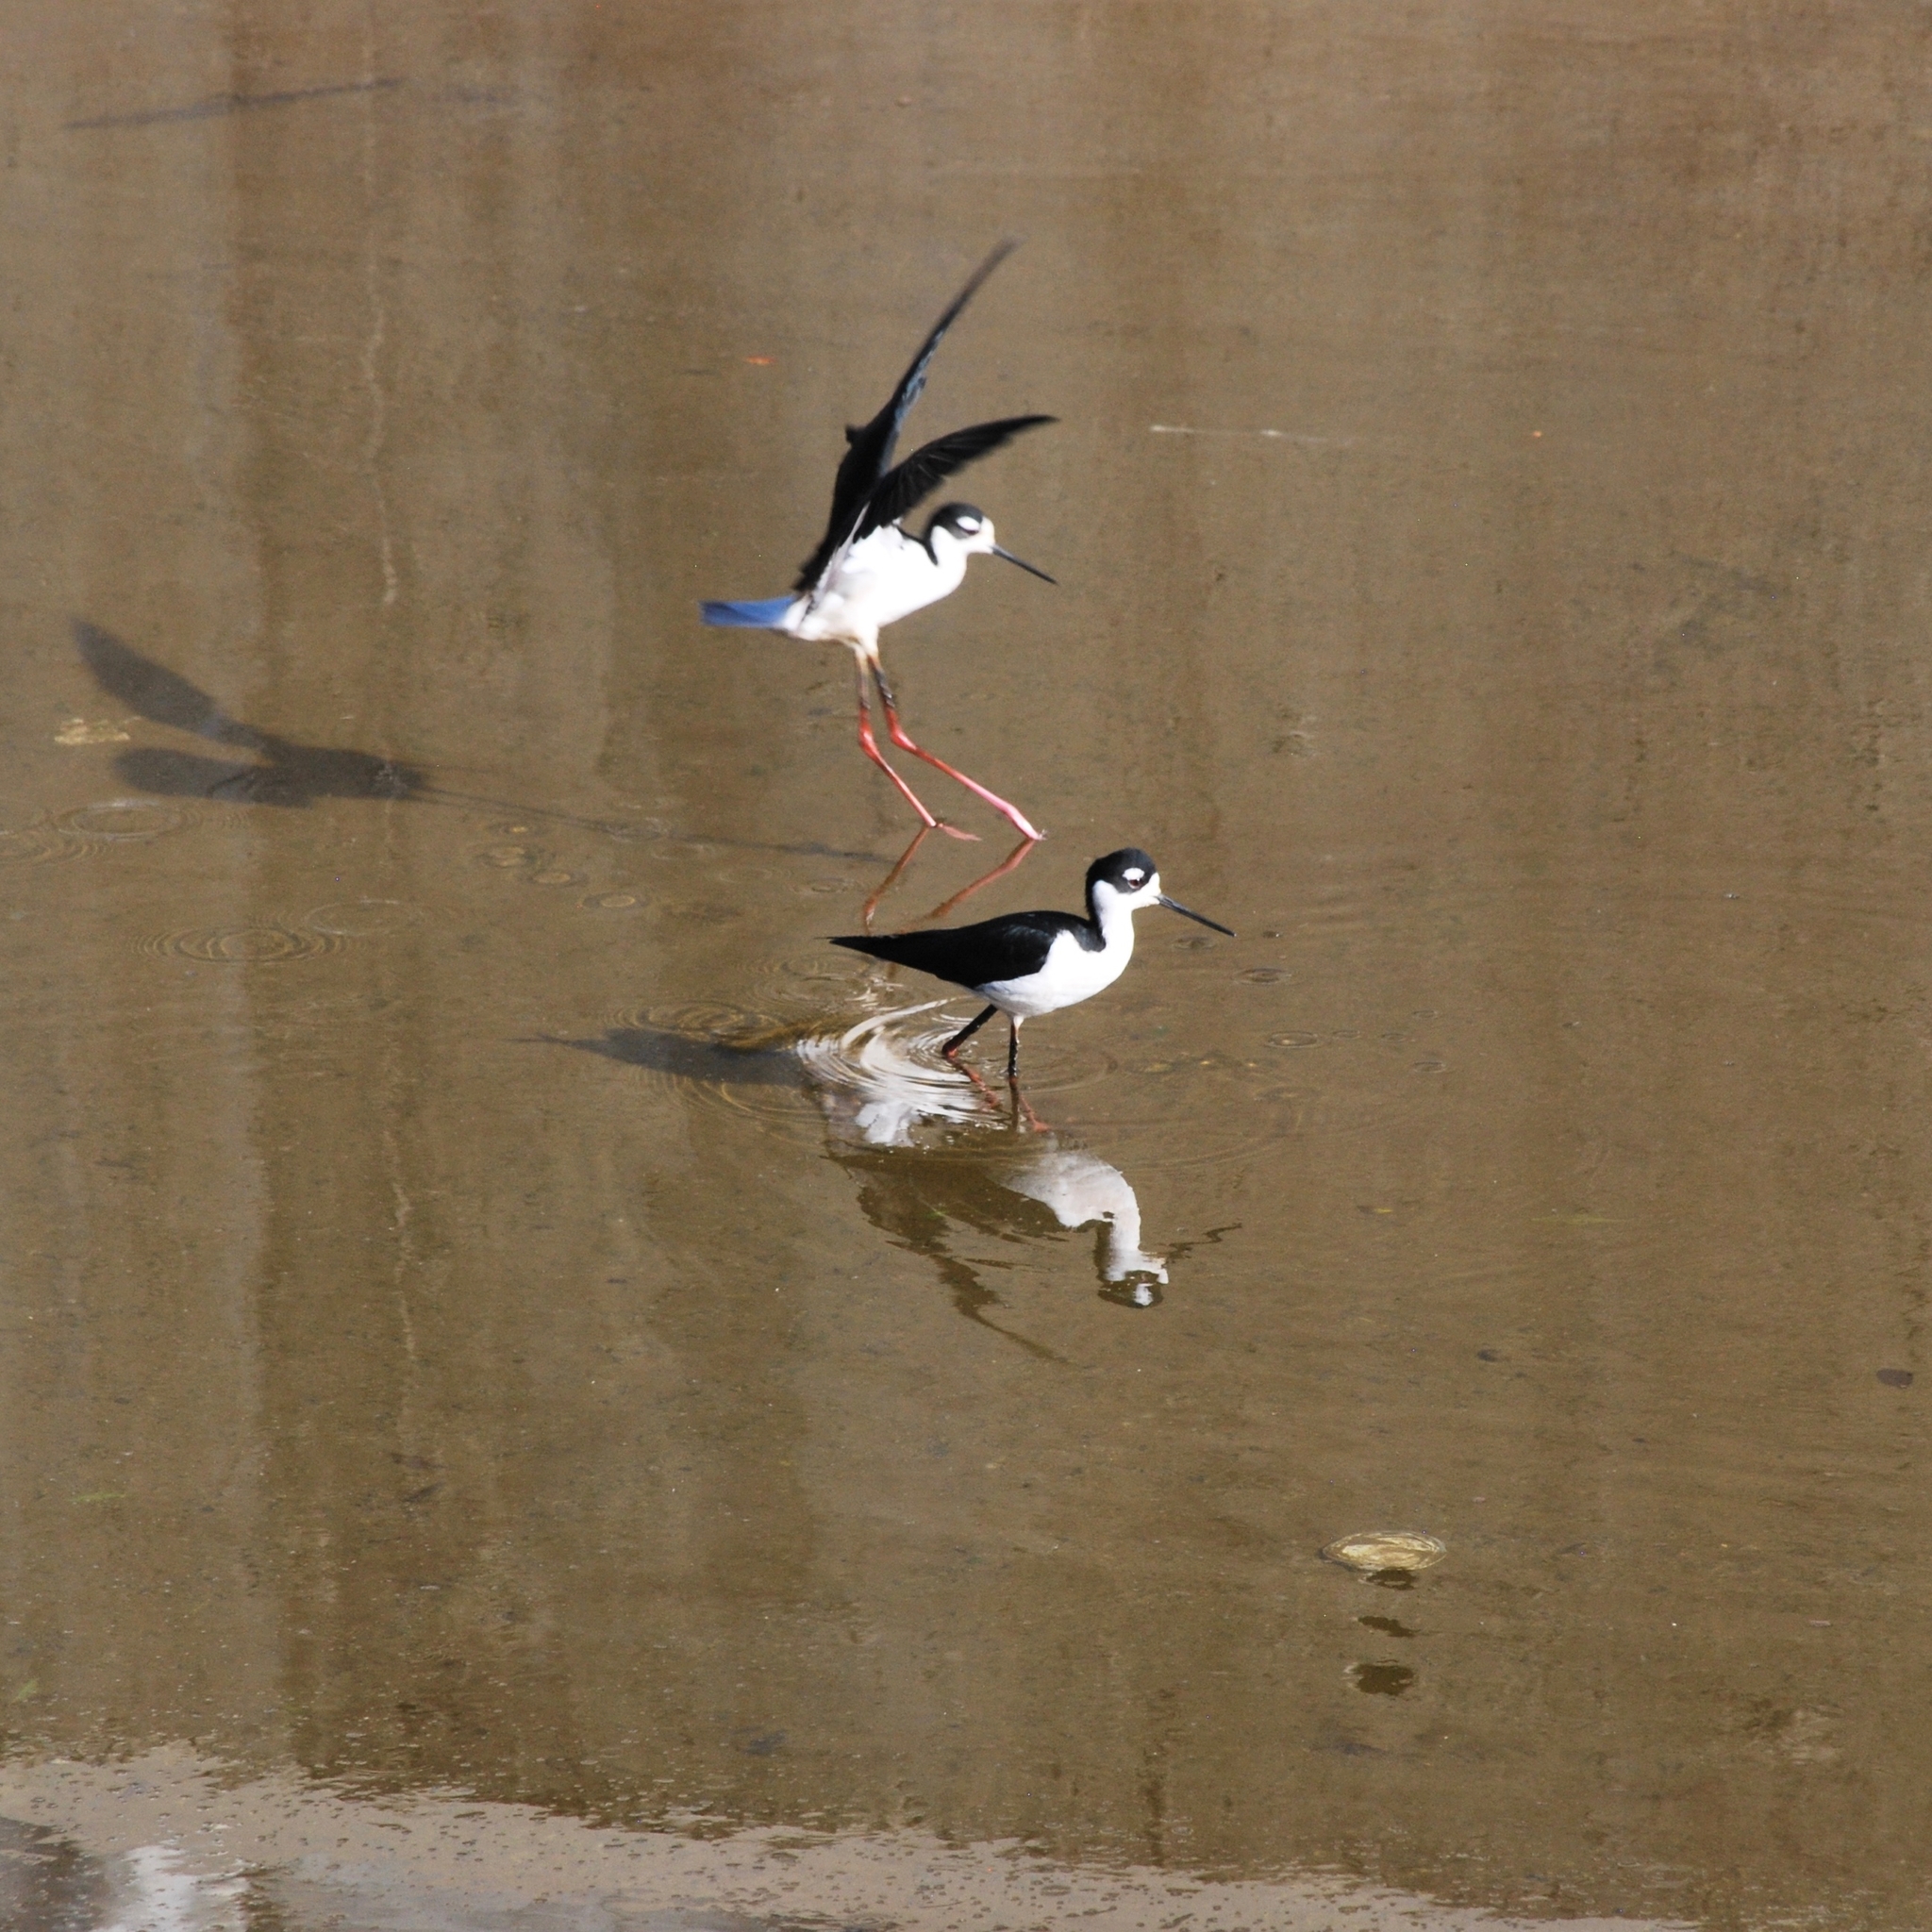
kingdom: Animalia
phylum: Chordata
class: Aves
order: Charadriiformes
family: Recurvirostridae
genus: Himantopus
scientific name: Himantopus mexicanus
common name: Black-necked stilt
